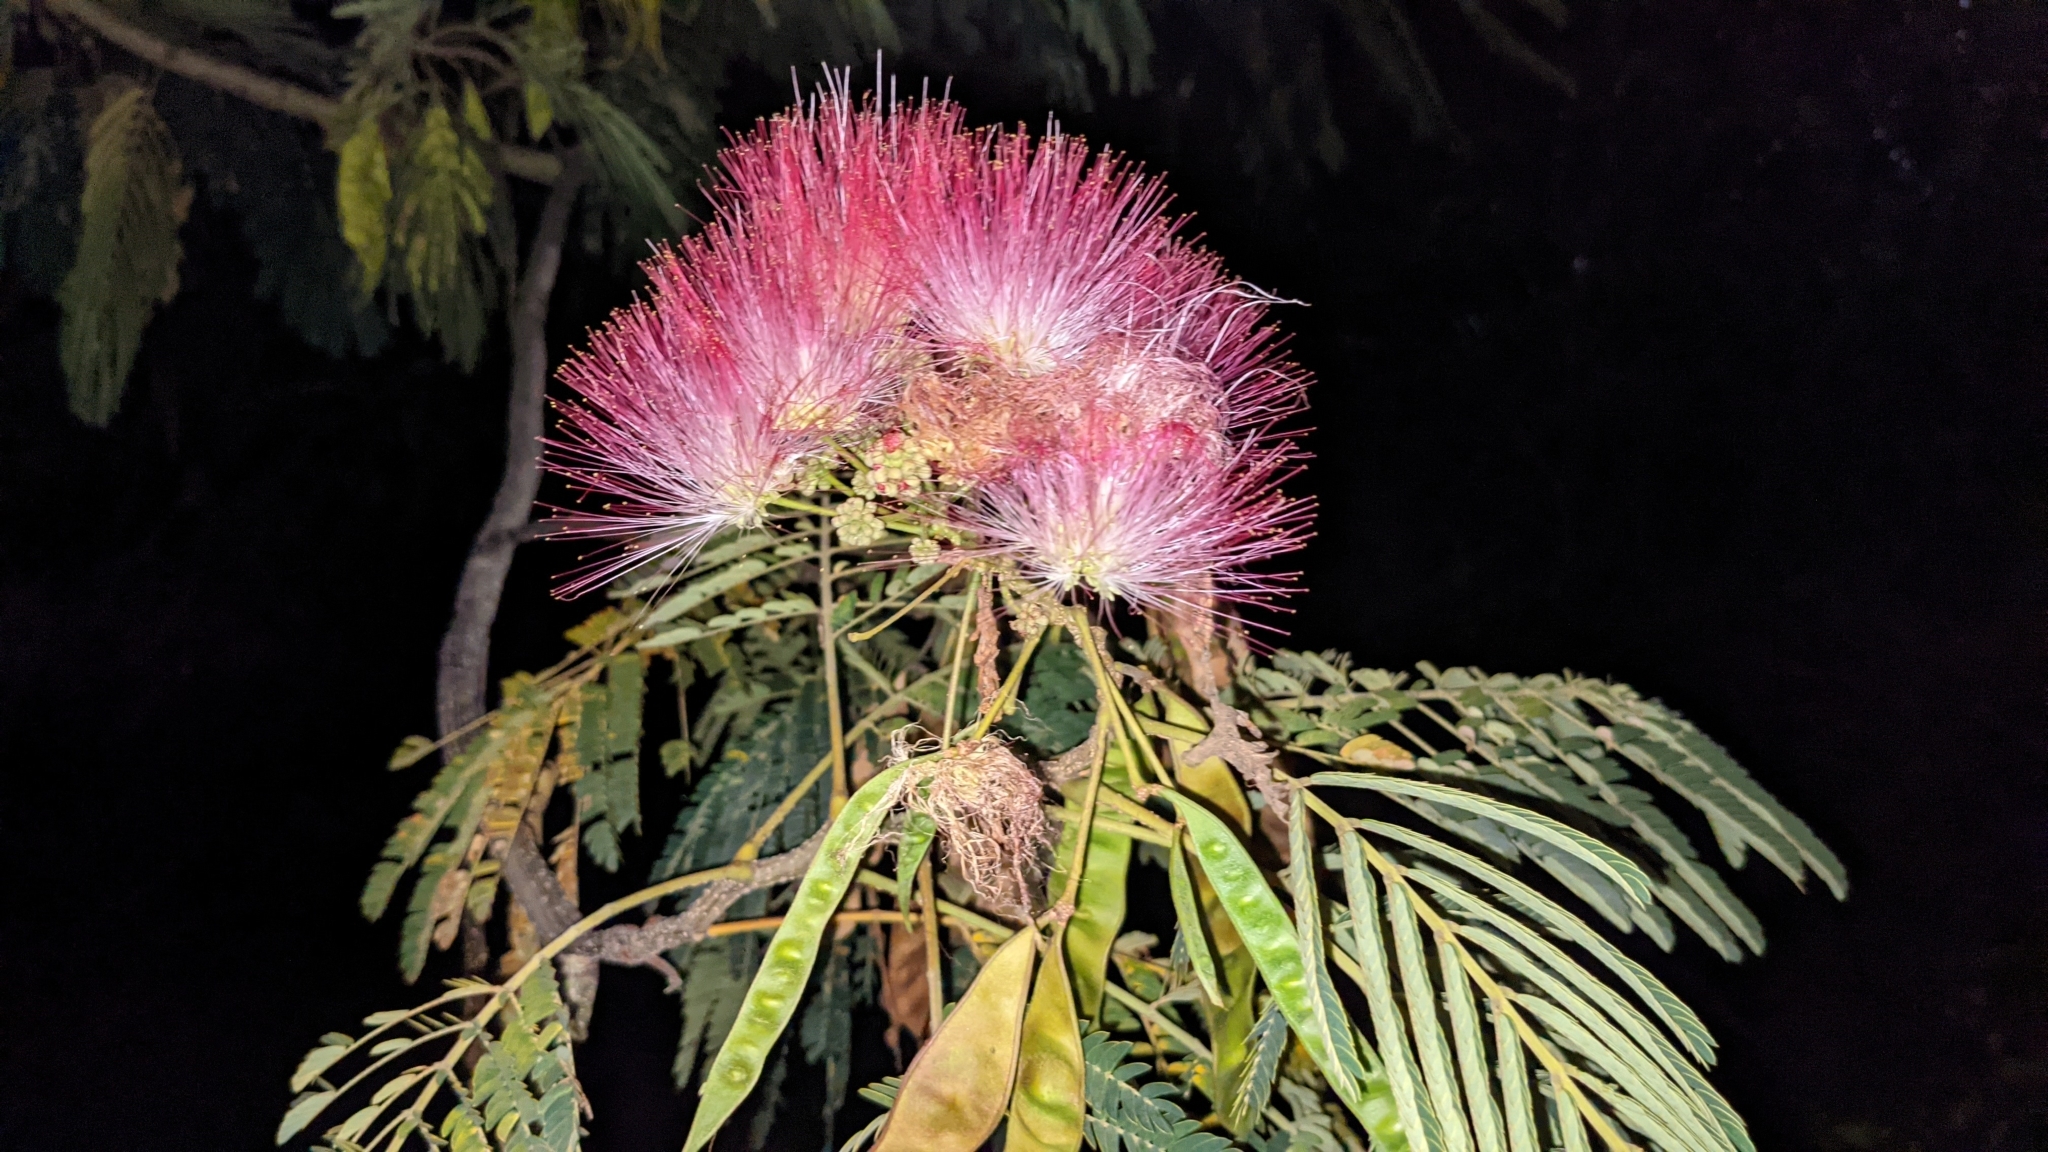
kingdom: Plantae
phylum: Tracheophyta
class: Magnoliopsida
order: Fabales
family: Fabaceae
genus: Albizia
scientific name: Albizia julibrissin
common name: Silktree
